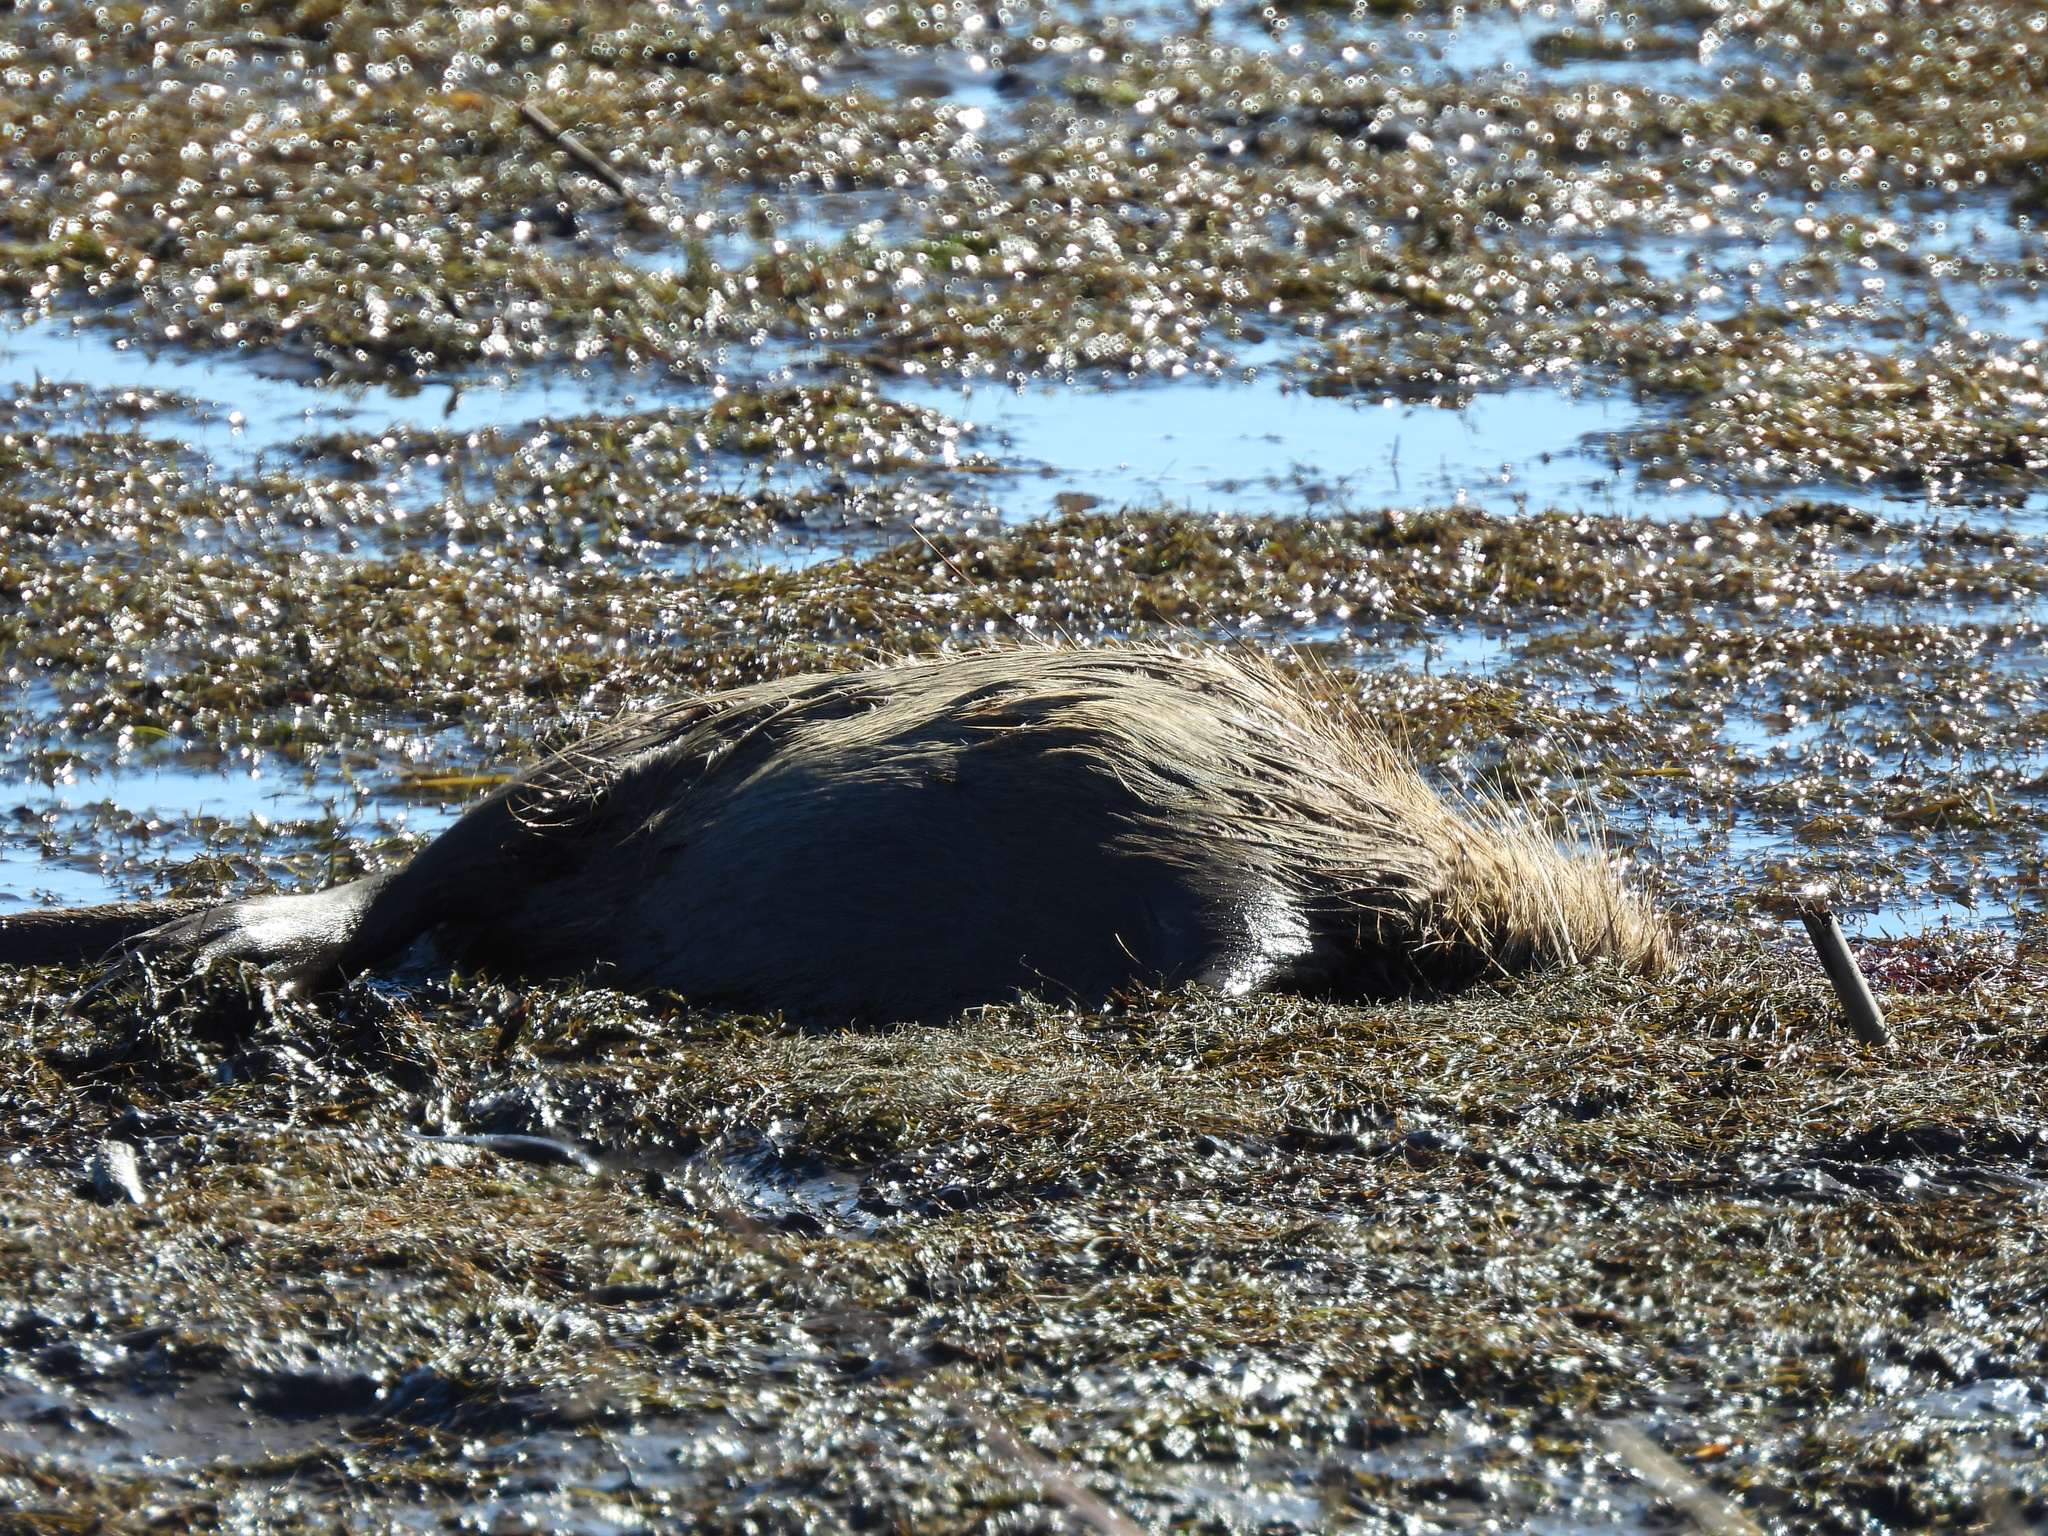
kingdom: Animalia
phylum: Chordata
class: Mammalia
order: Rodentia
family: Myocastoridae
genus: Myocastor
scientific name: Myocastor coypus
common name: Coypu
